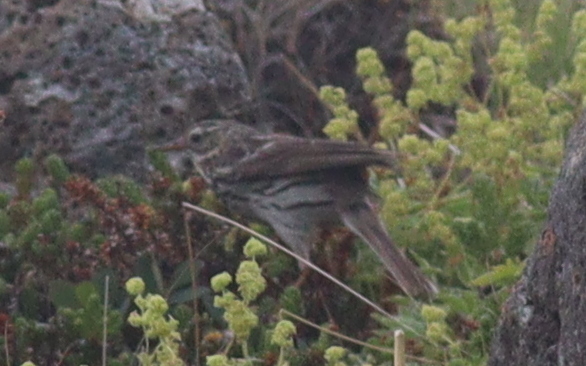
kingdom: Animalia
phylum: Chordata
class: Aves
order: Passeriformes
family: Motacillidae
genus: Anthus
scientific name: Anthus pratensis
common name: Meadow pipit
